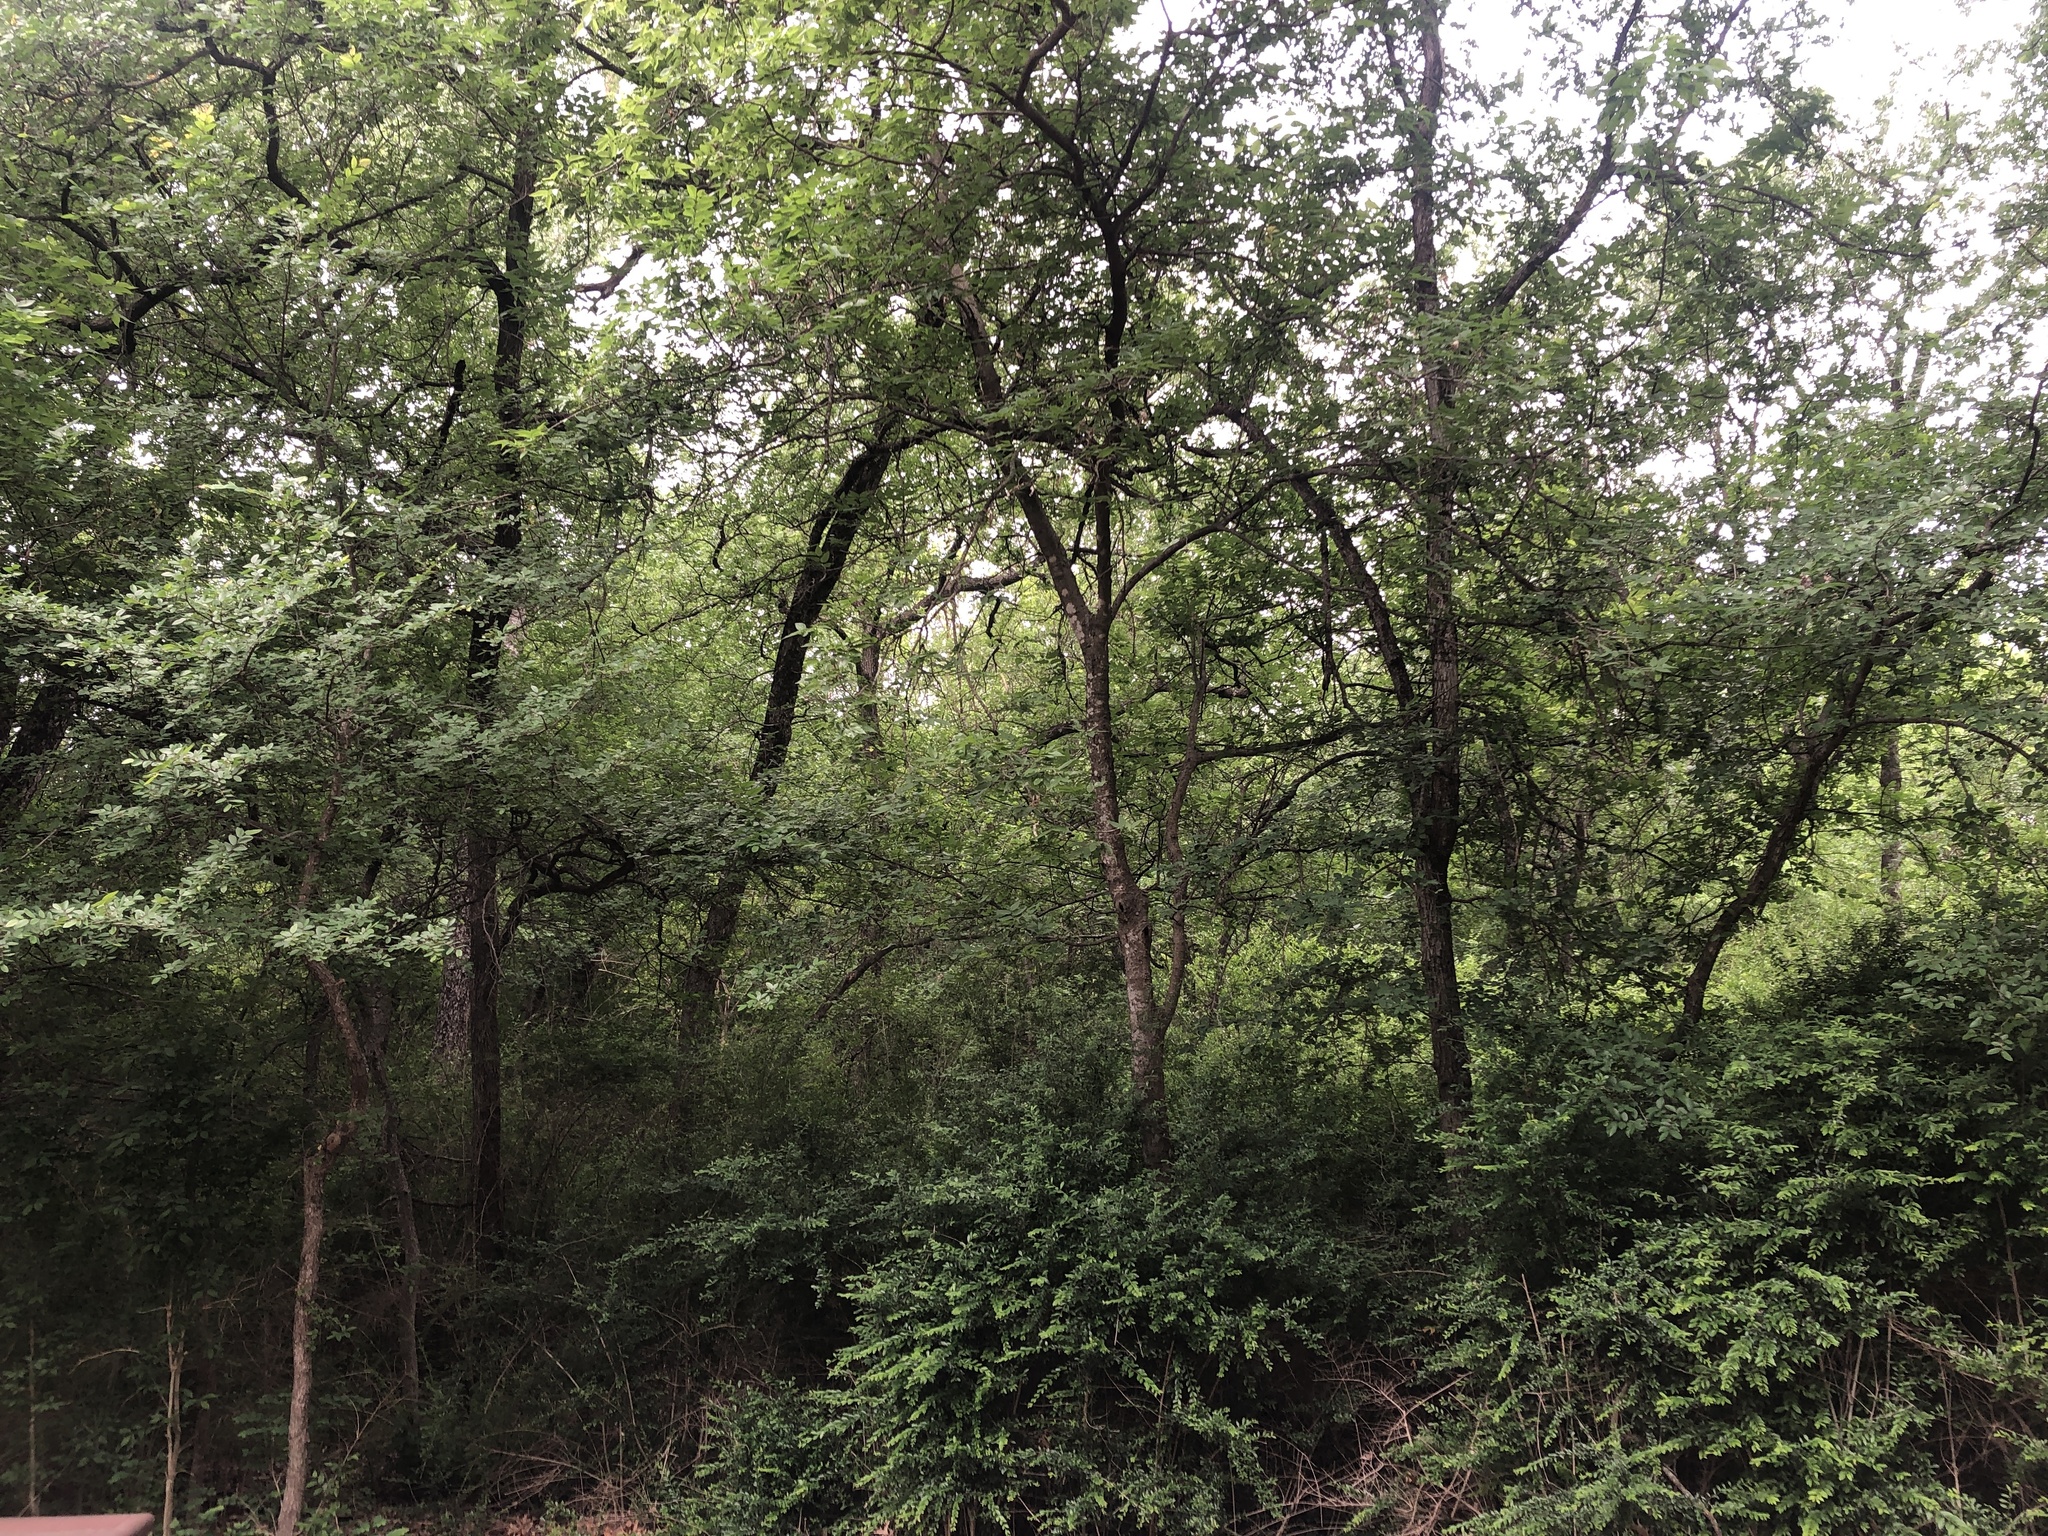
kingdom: Animalia
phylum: Chordata
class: Aves
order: Passeriformes
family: Troglodytidae
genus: Thryothorus
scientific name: Thryothorus ludovicianus
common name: Carolina wren
